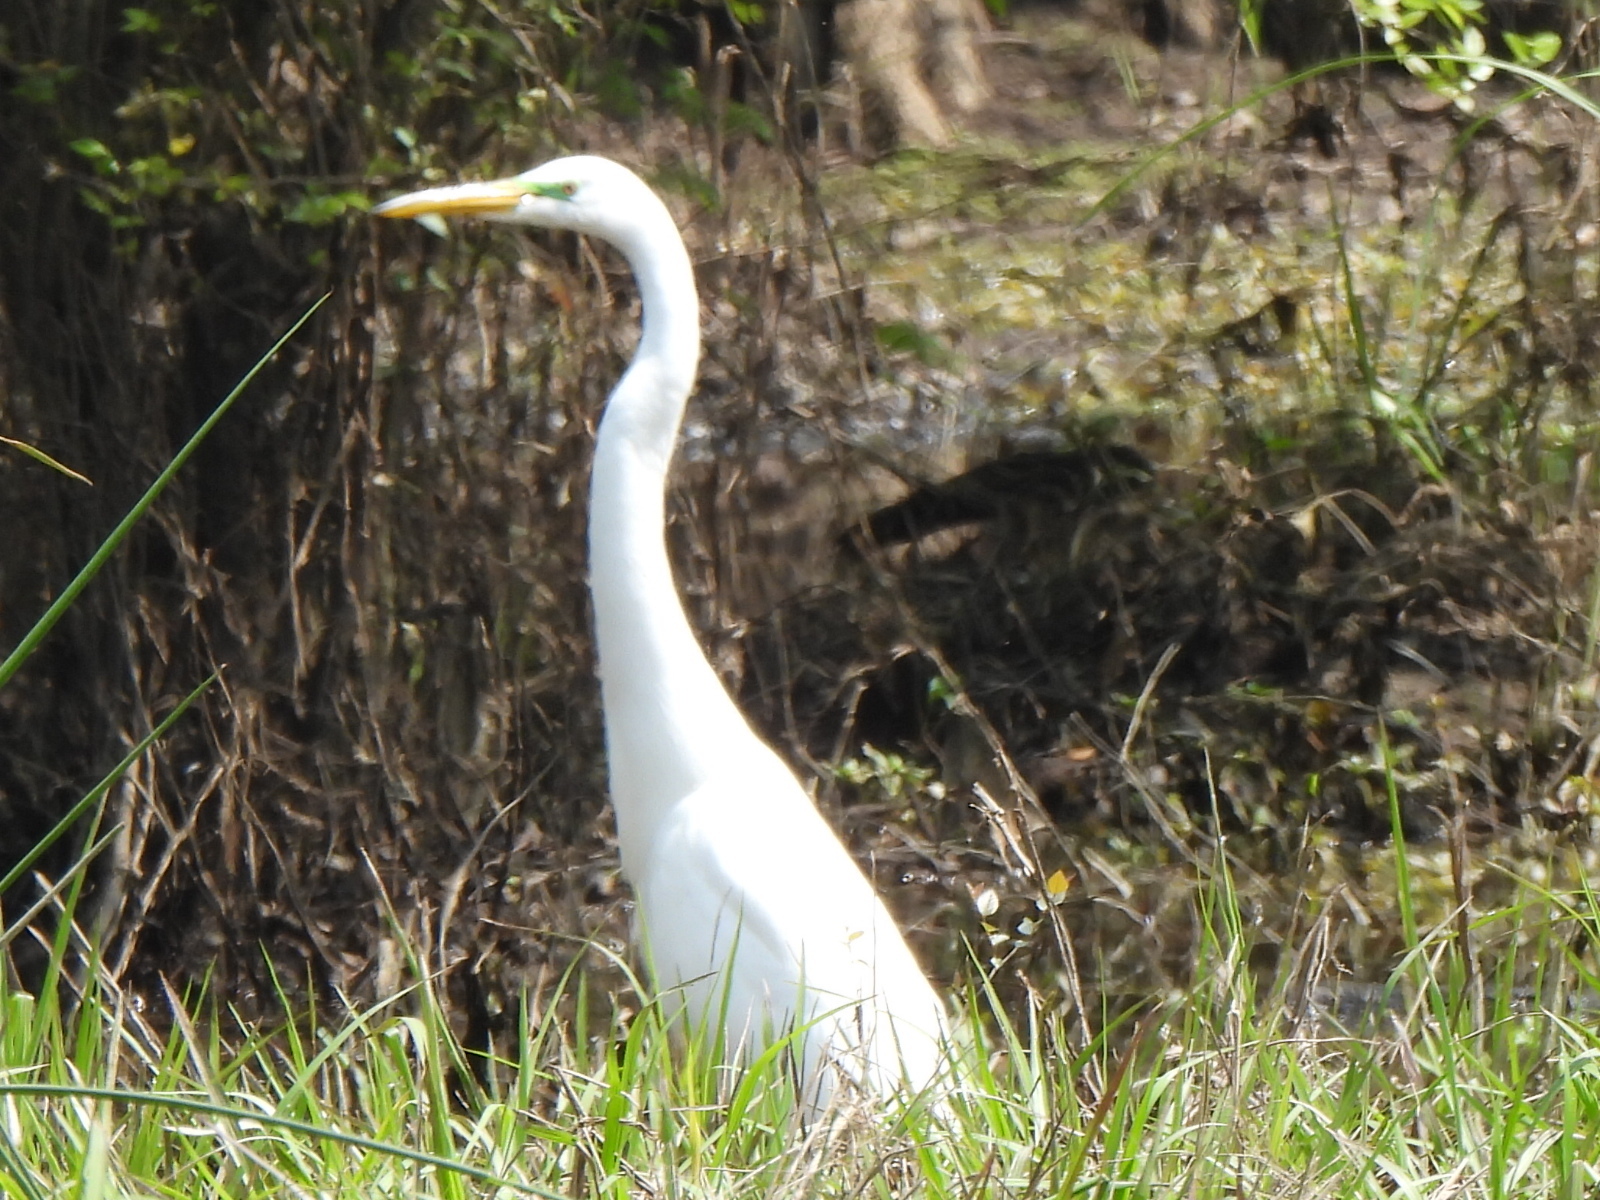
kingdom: Animalia
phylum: Chordata
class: Aves
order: Pelecaniformes
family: Ardeidae
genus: Ardea
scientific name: Ardea alba
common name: Great egret
